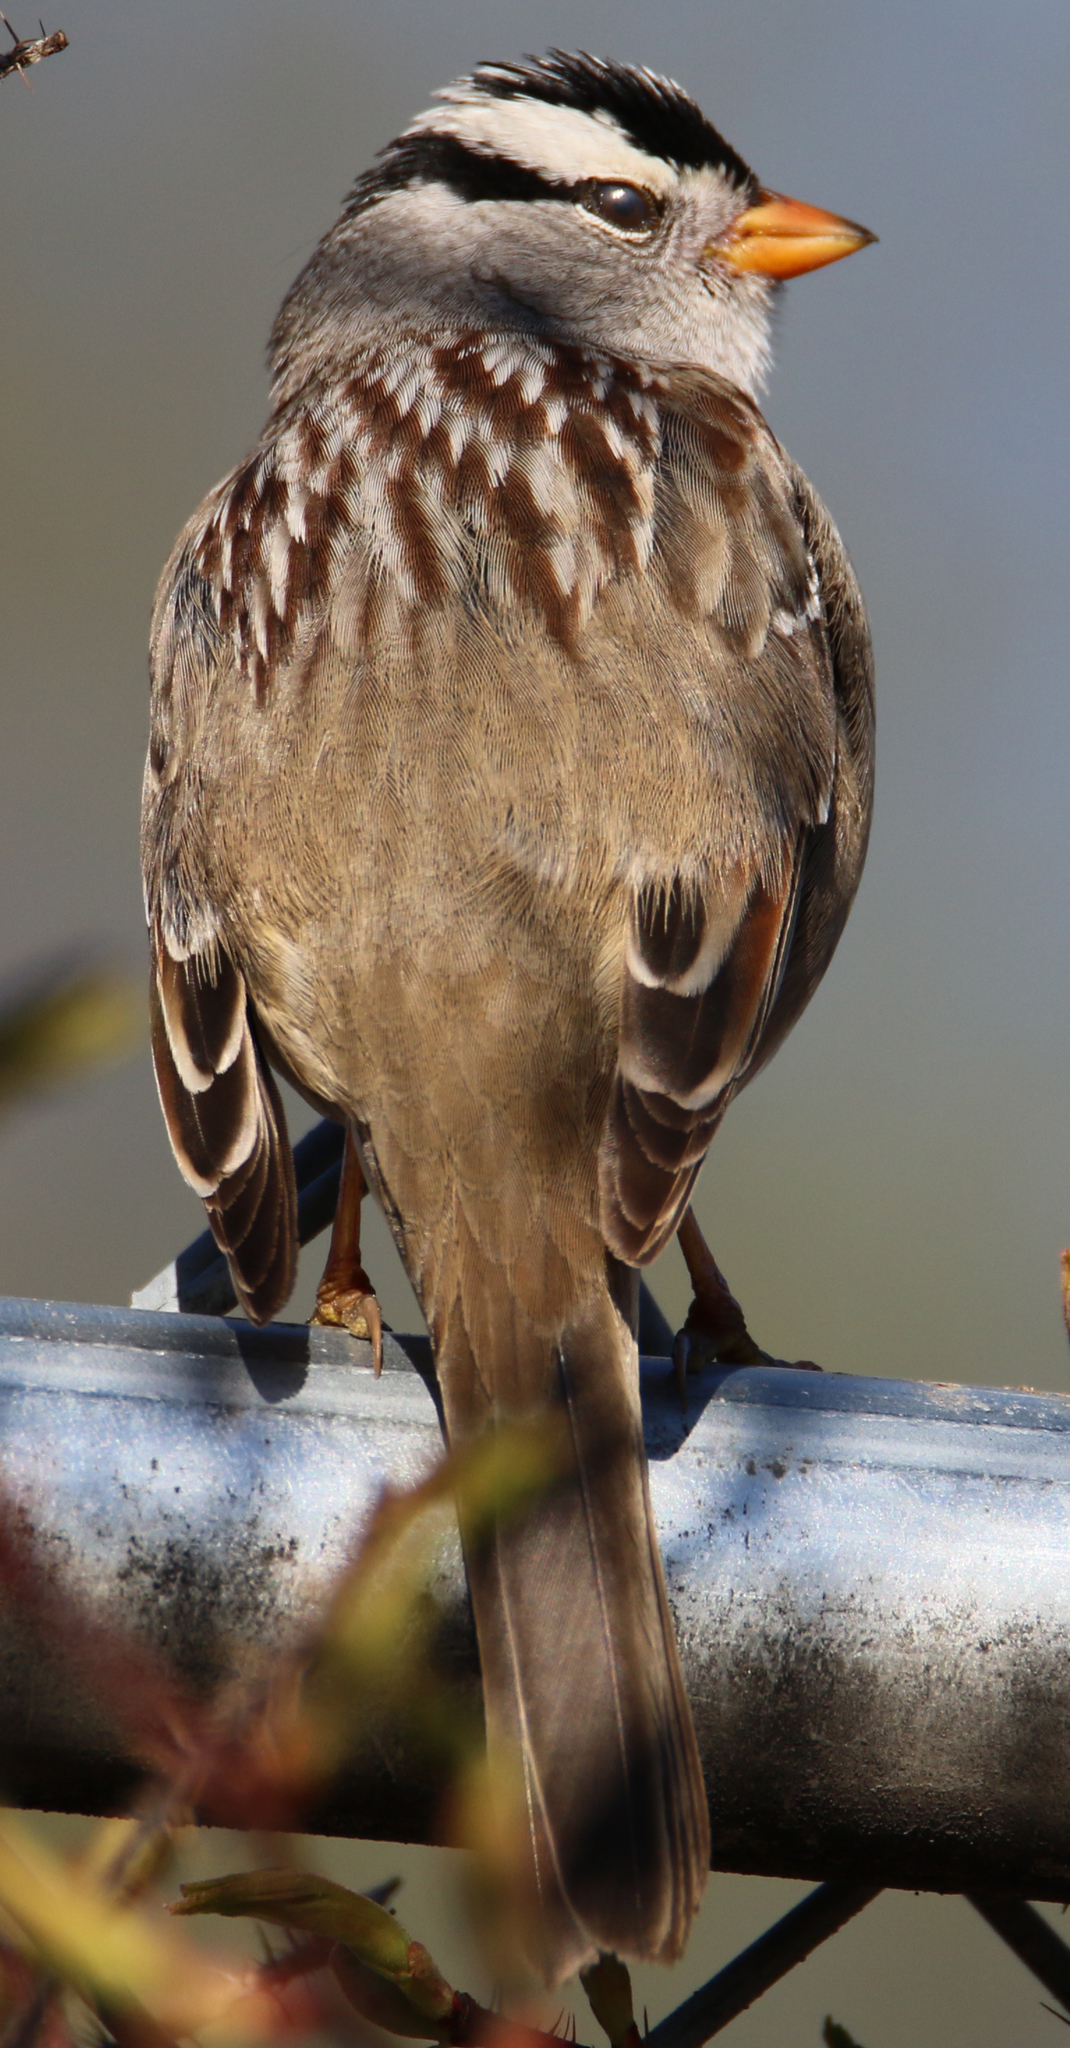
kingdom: Animalia
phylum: Chordata
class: Aves
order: Passeriformes
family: Passerellidae
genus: Zonotrichia
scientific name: Zonotrichia leucophrys
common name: White-crowned sparrow
